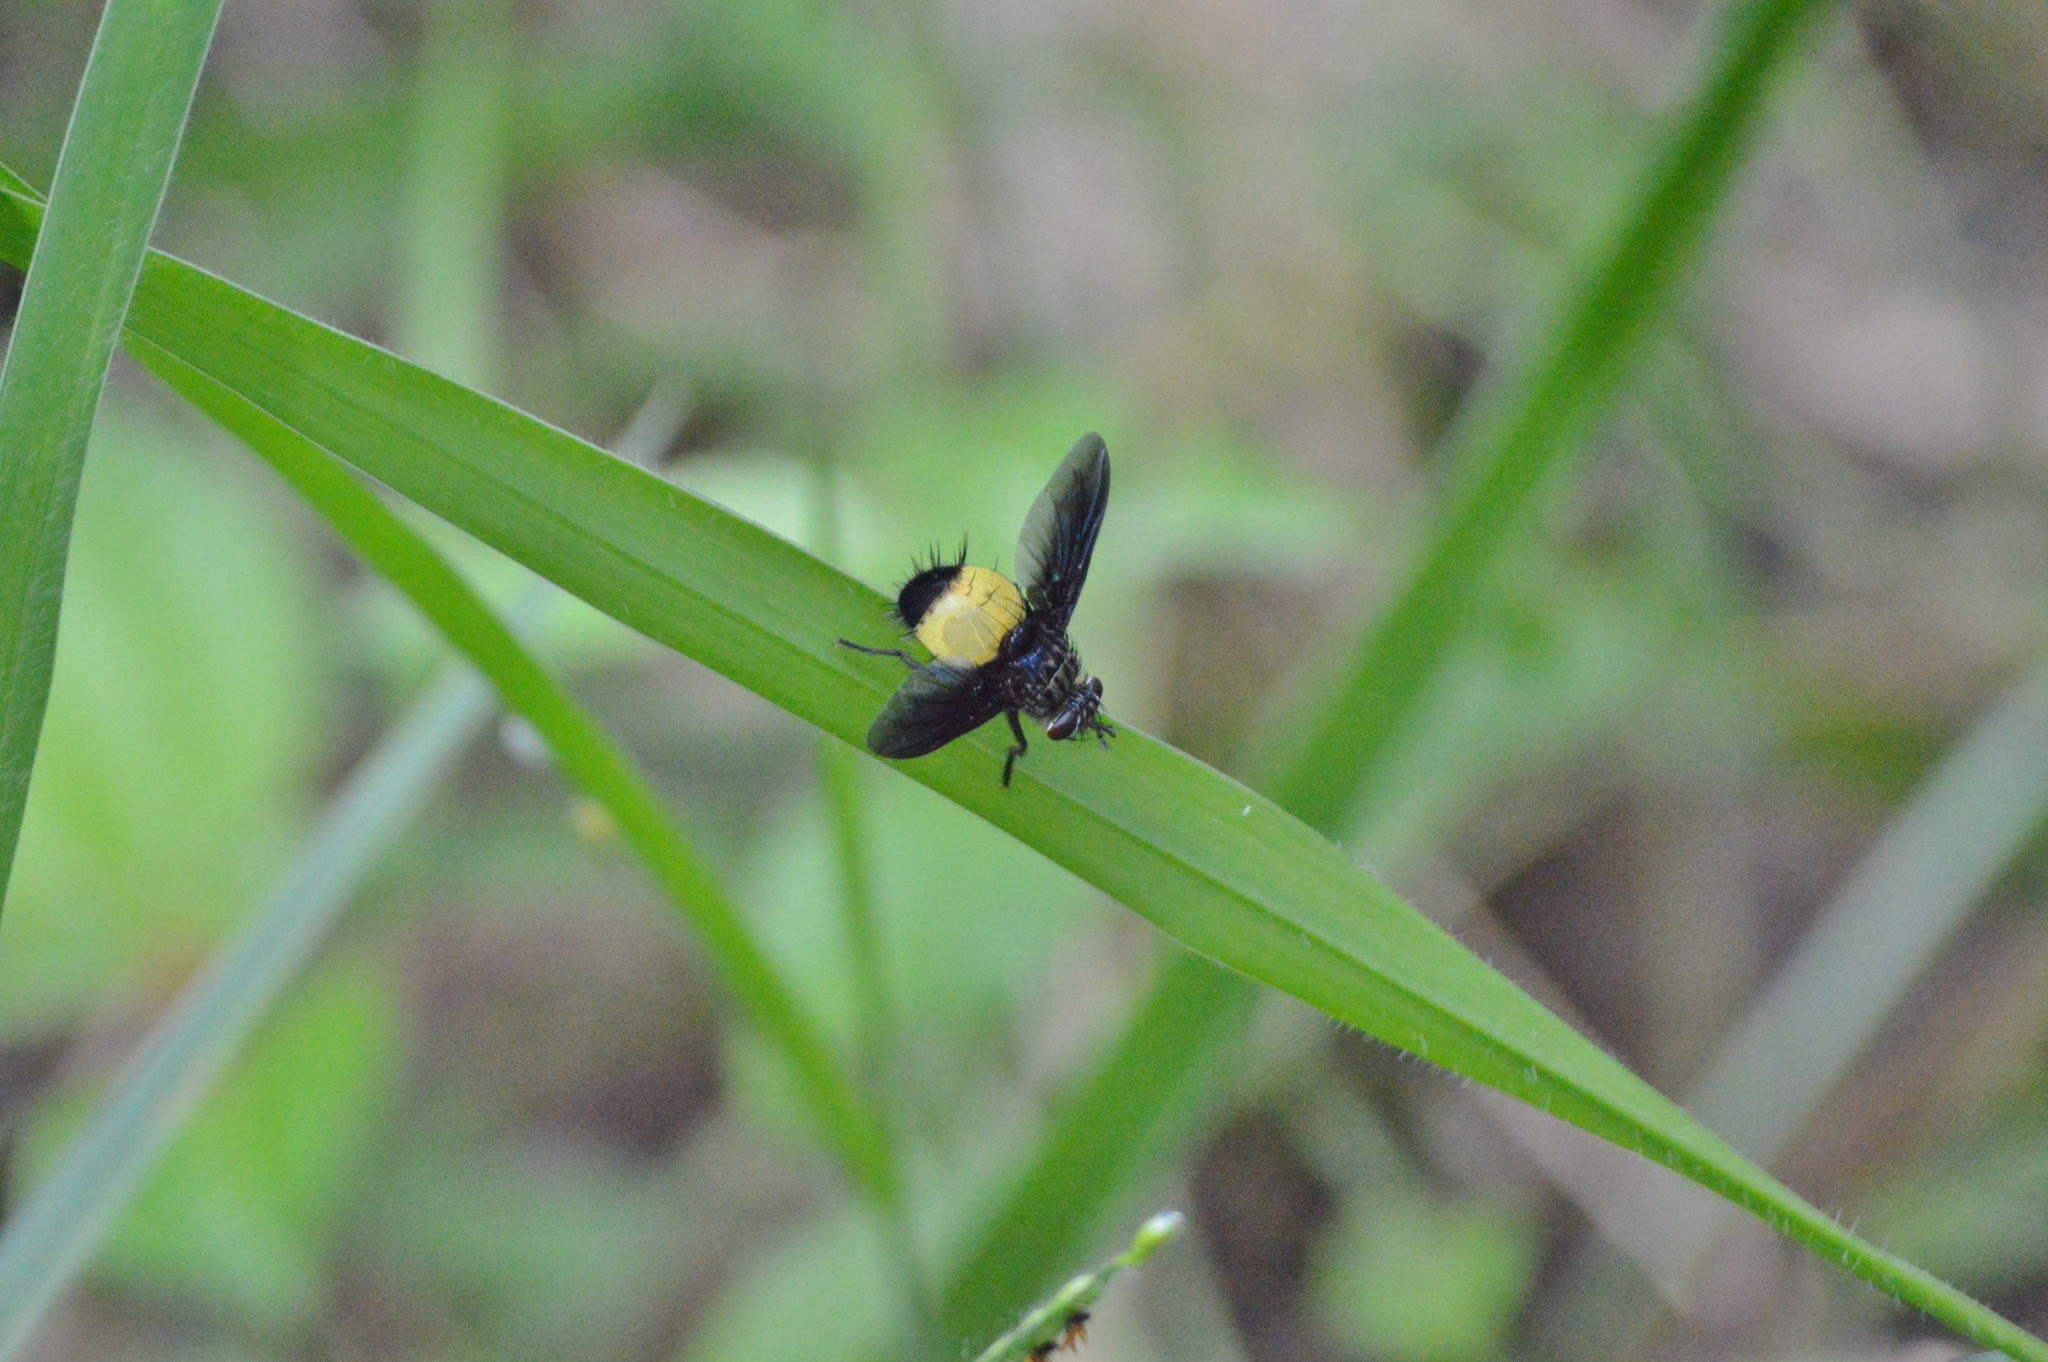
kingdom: Animalia
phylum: Arthropoda
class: Insecta
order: Diptera
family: Tachinidae
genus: Xanthozona
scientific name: Xanthozona melanopyga
